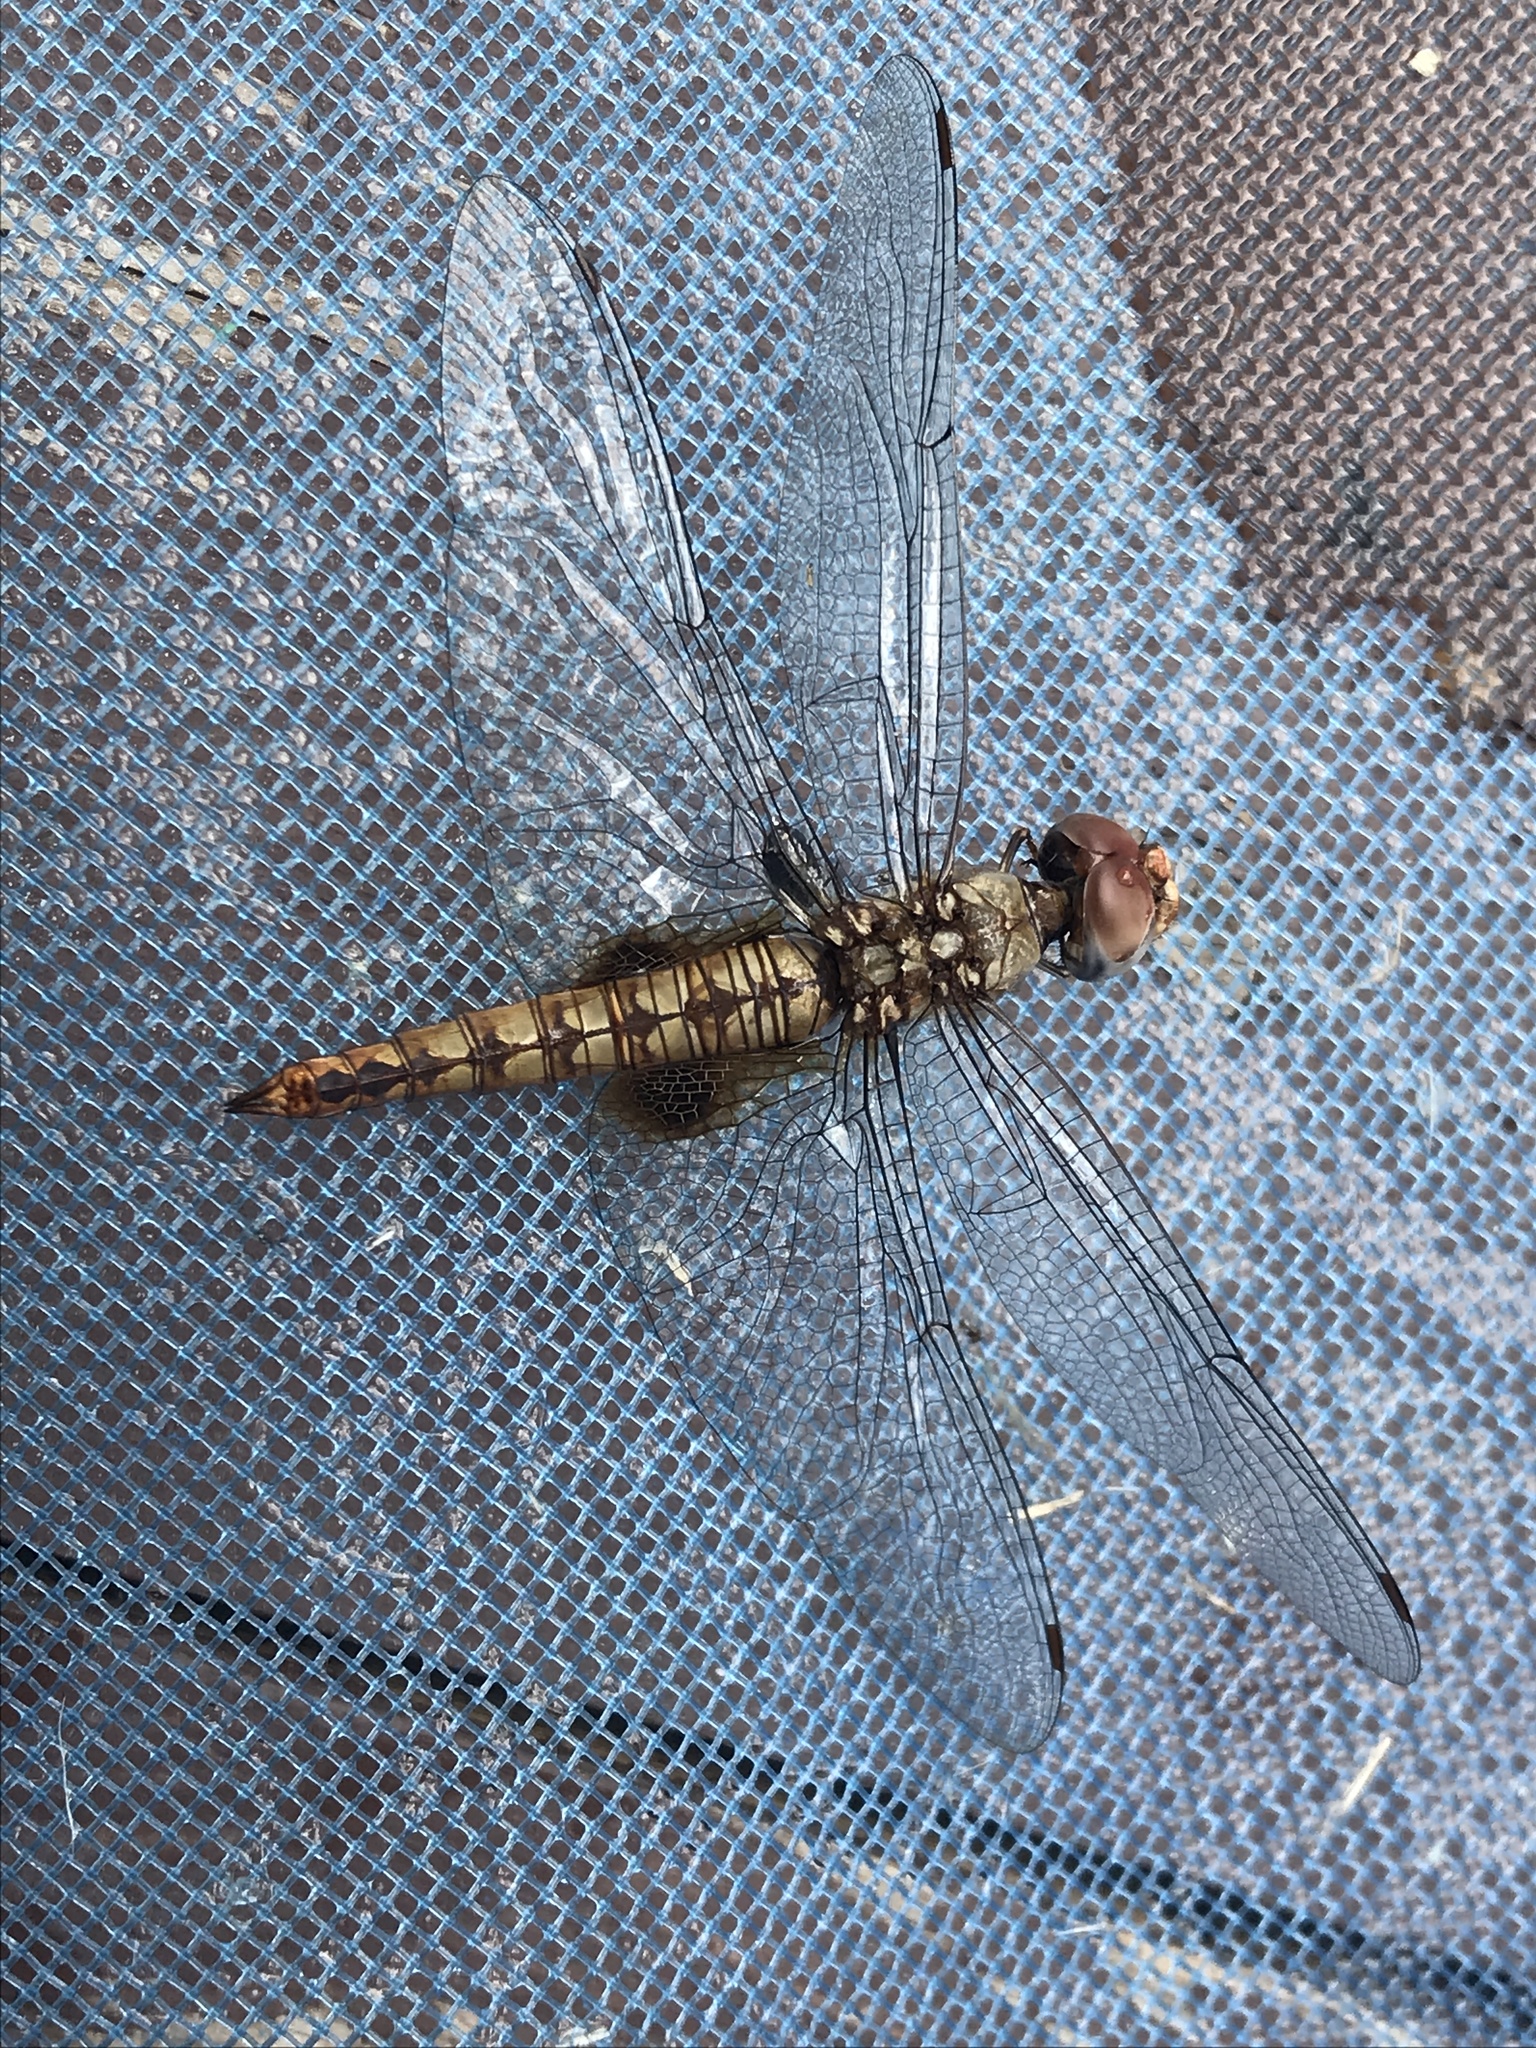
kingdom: Animalia
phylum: Arthropoda
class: Insecta
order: Odonata
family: Libellulidae
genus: Pantala
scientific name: Pantala hymenaea
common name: Spot-winged glider
